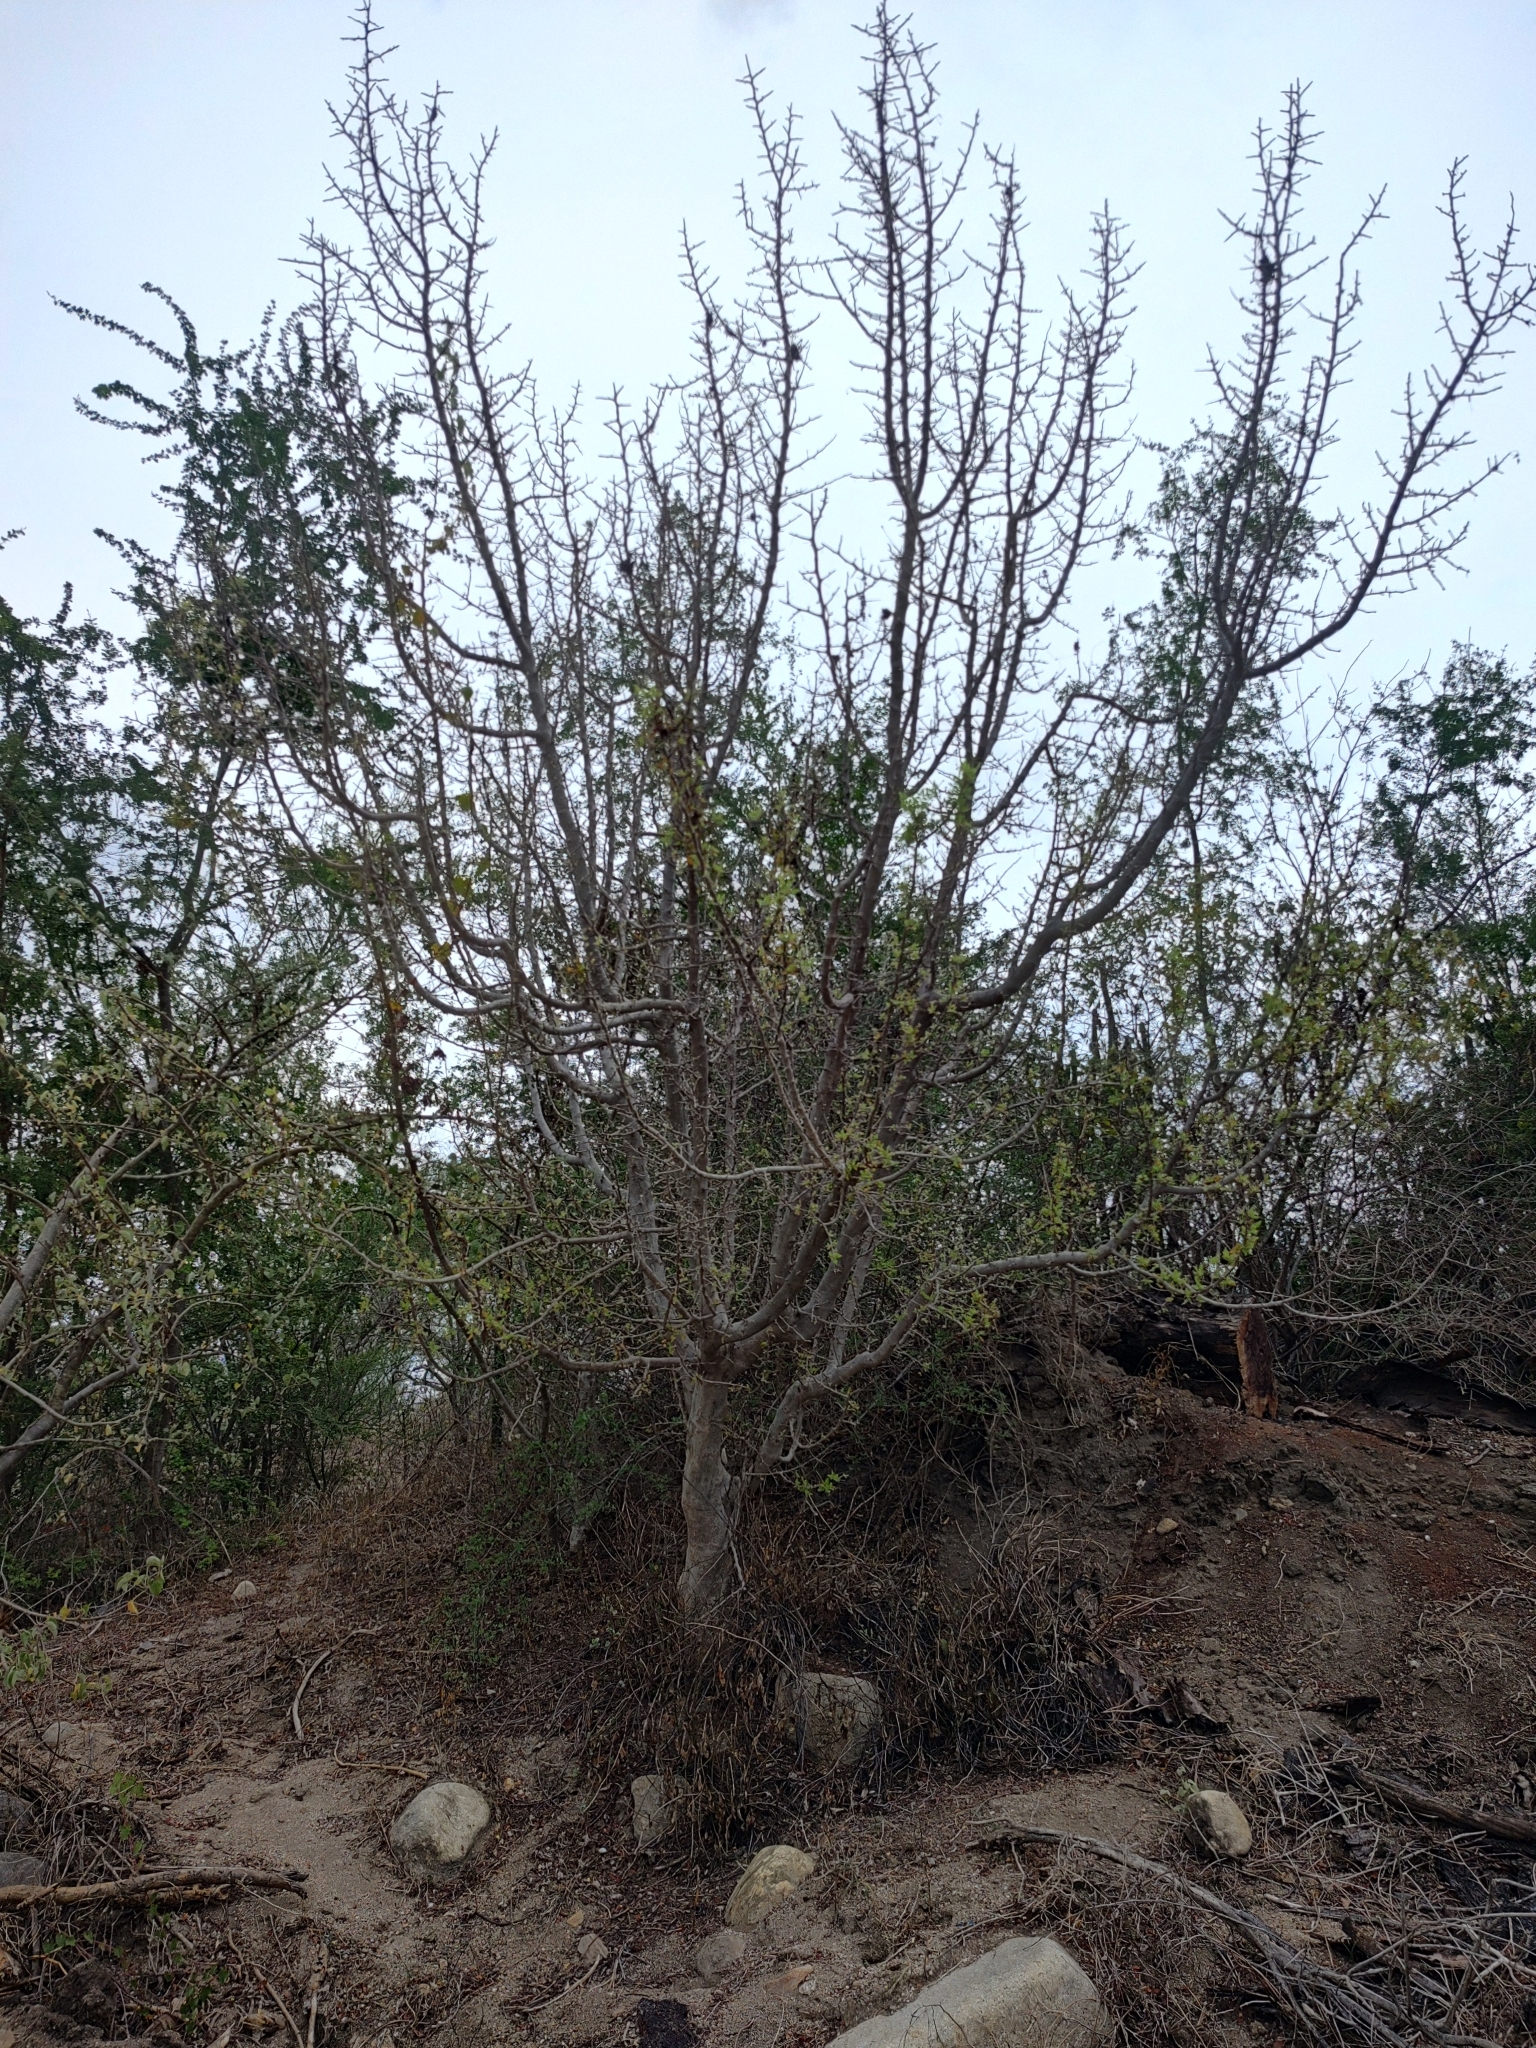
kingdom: Plantae
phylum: Tracheophyta
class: Magnoliopsida
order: Sapindales
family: Burseraceae
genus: Bursera
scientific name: Bursera filicifolia
